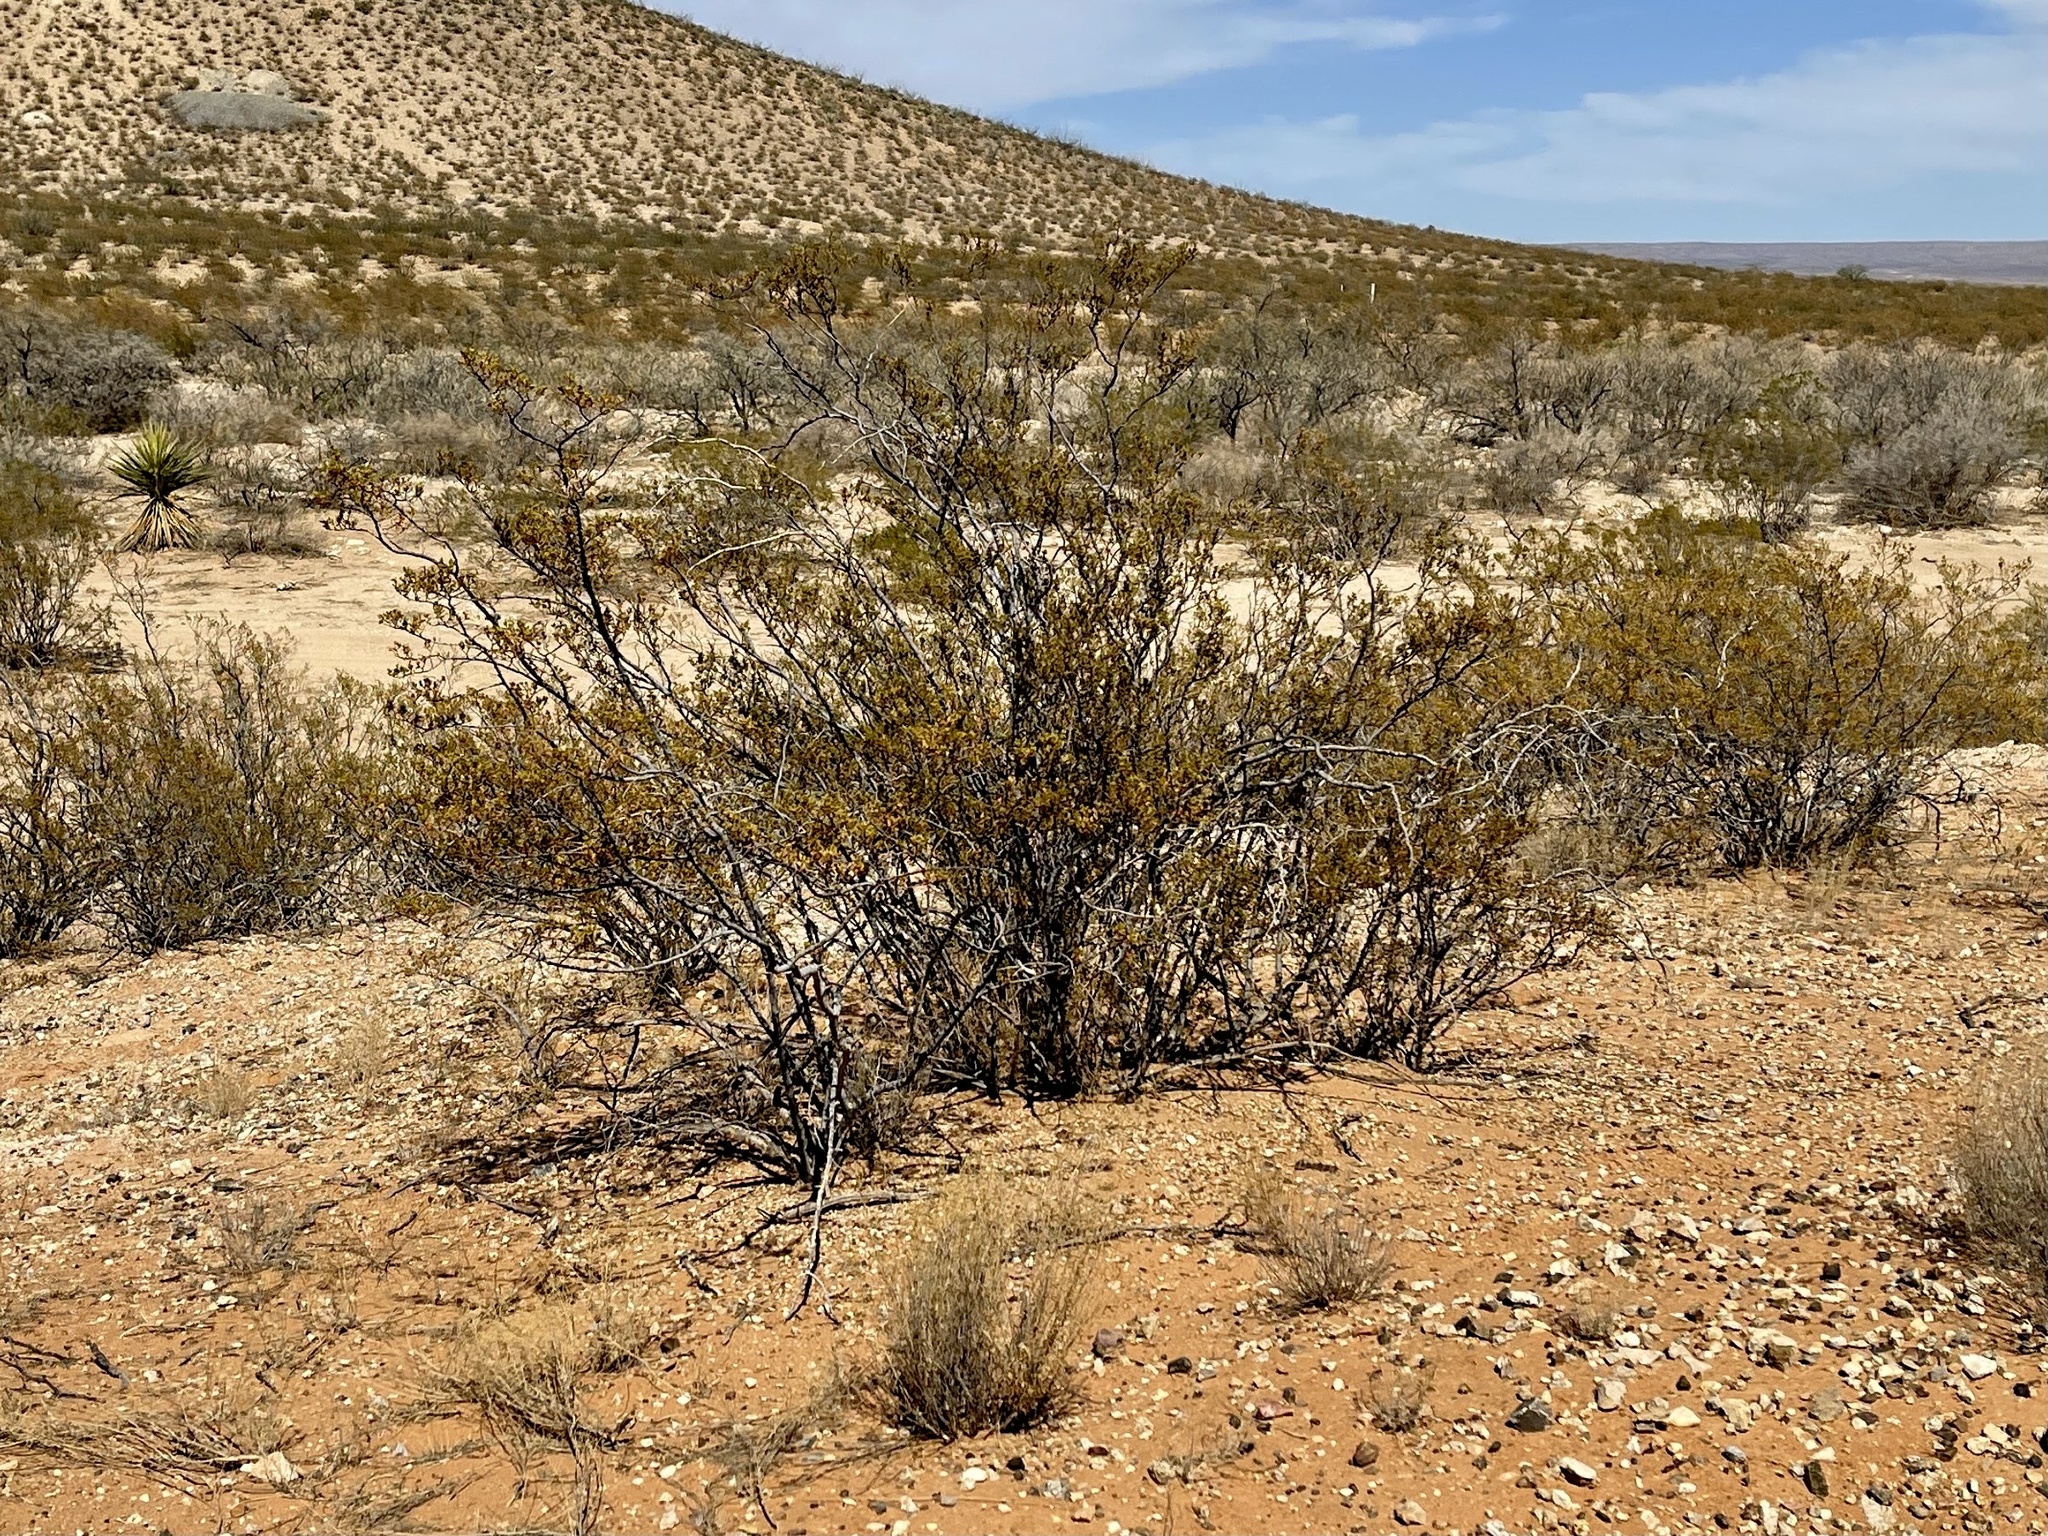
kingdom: Plantae
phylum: Tracheophyta
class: Magnoliopsida
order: Zygophyllales
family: Zygophyllaceae
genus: Larrea
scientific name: Larrea tridentata
